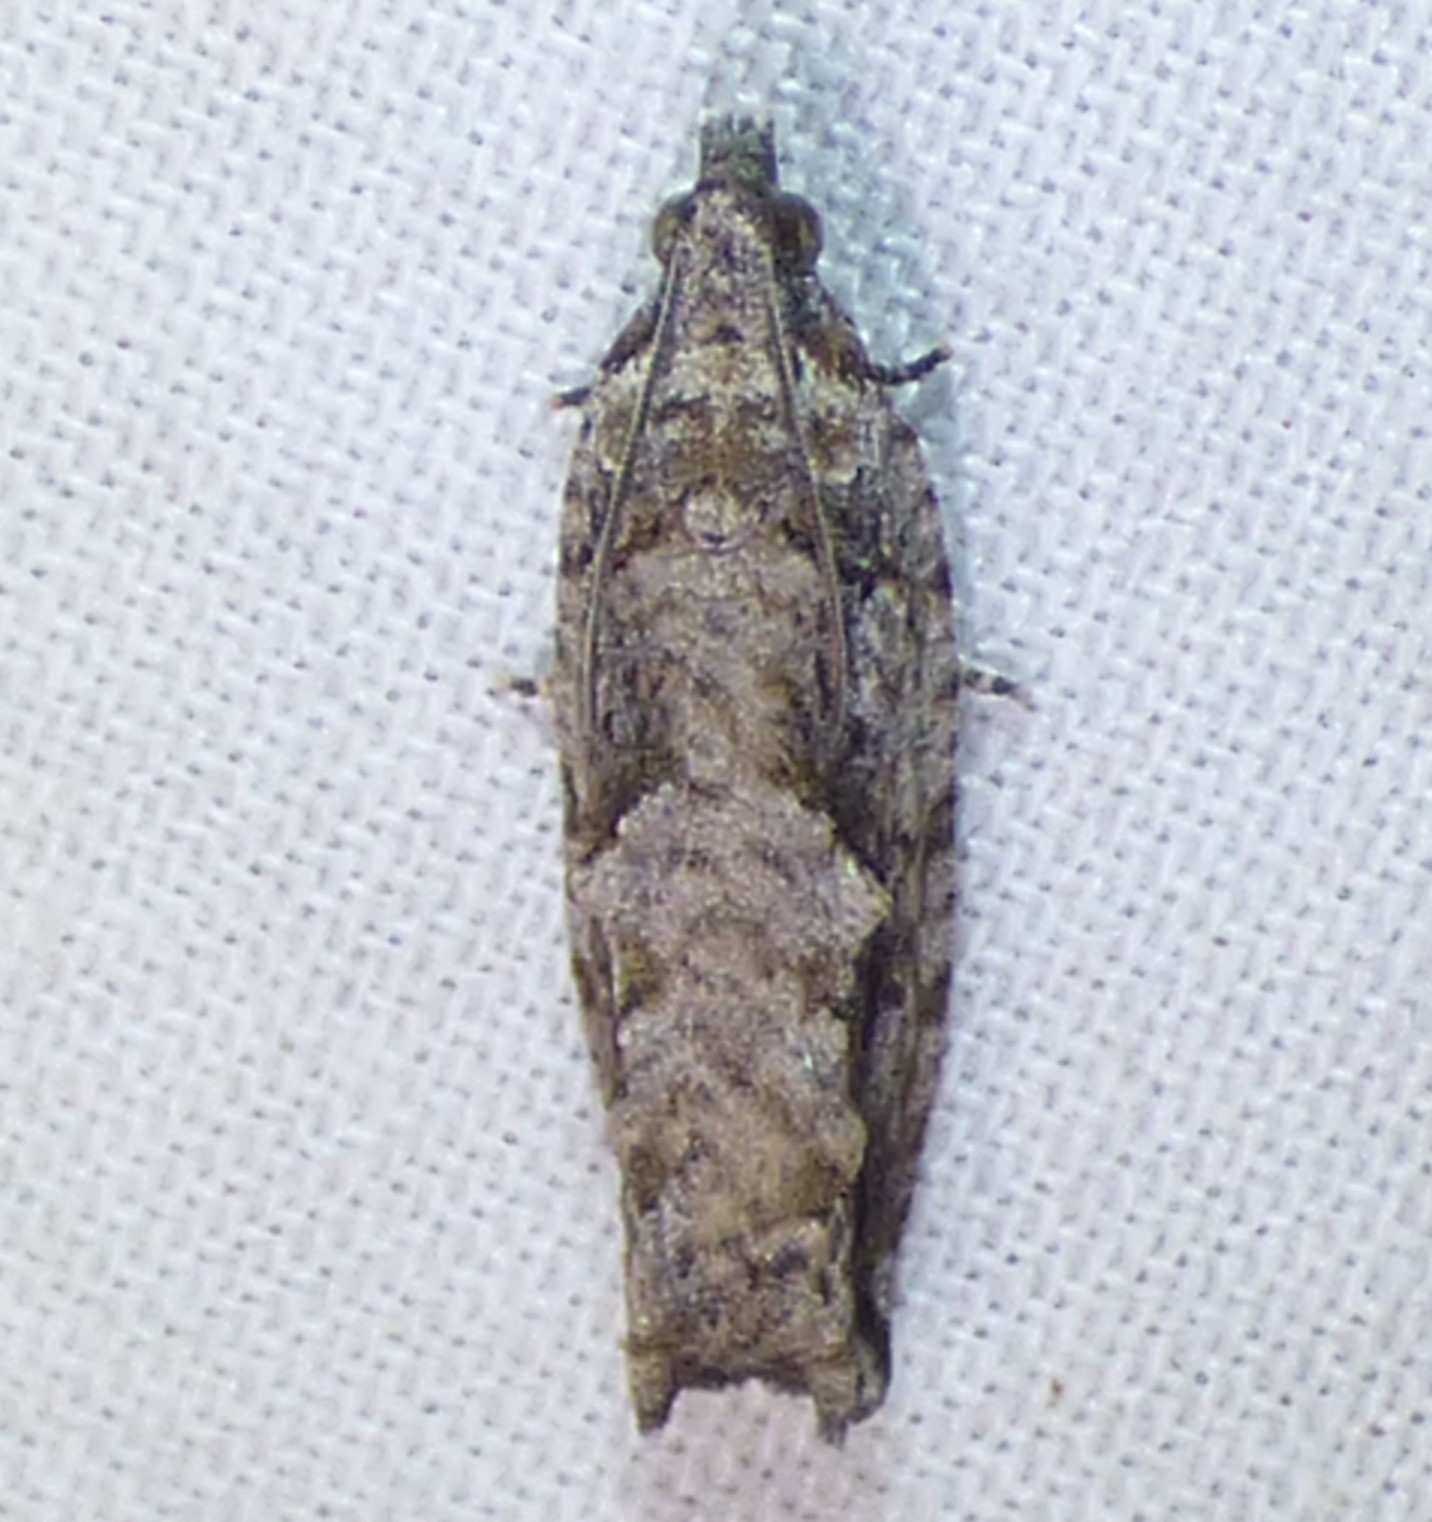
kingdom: Animalia
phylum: Arthropoda
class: Insecta
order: Lepidoptera
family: Tortricidae
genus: Gretchena
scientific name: Gretchena bolliana
